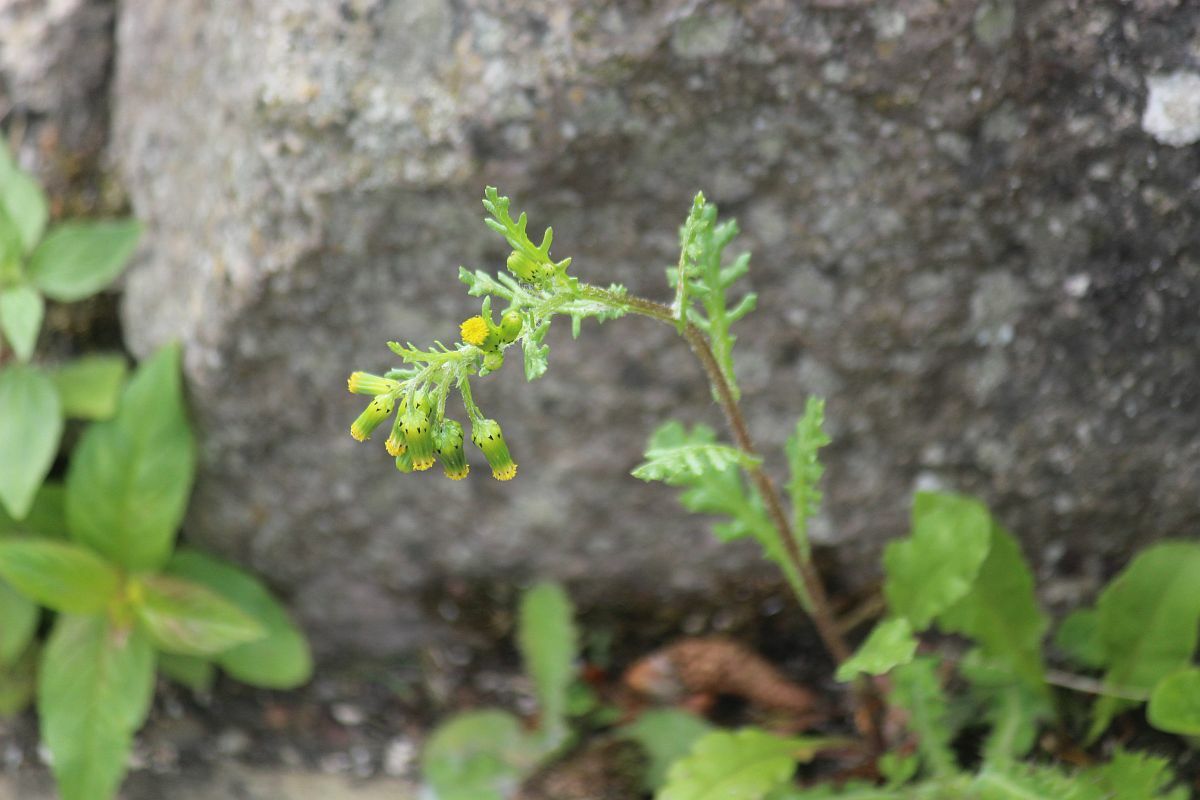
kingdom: Plantae
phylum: Tracheophyta
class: Magnoliopsida
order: Asterales
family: Asteraceae
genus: Senecio
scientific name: Senecio vulgaris
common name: Old-man-in-the-spring
